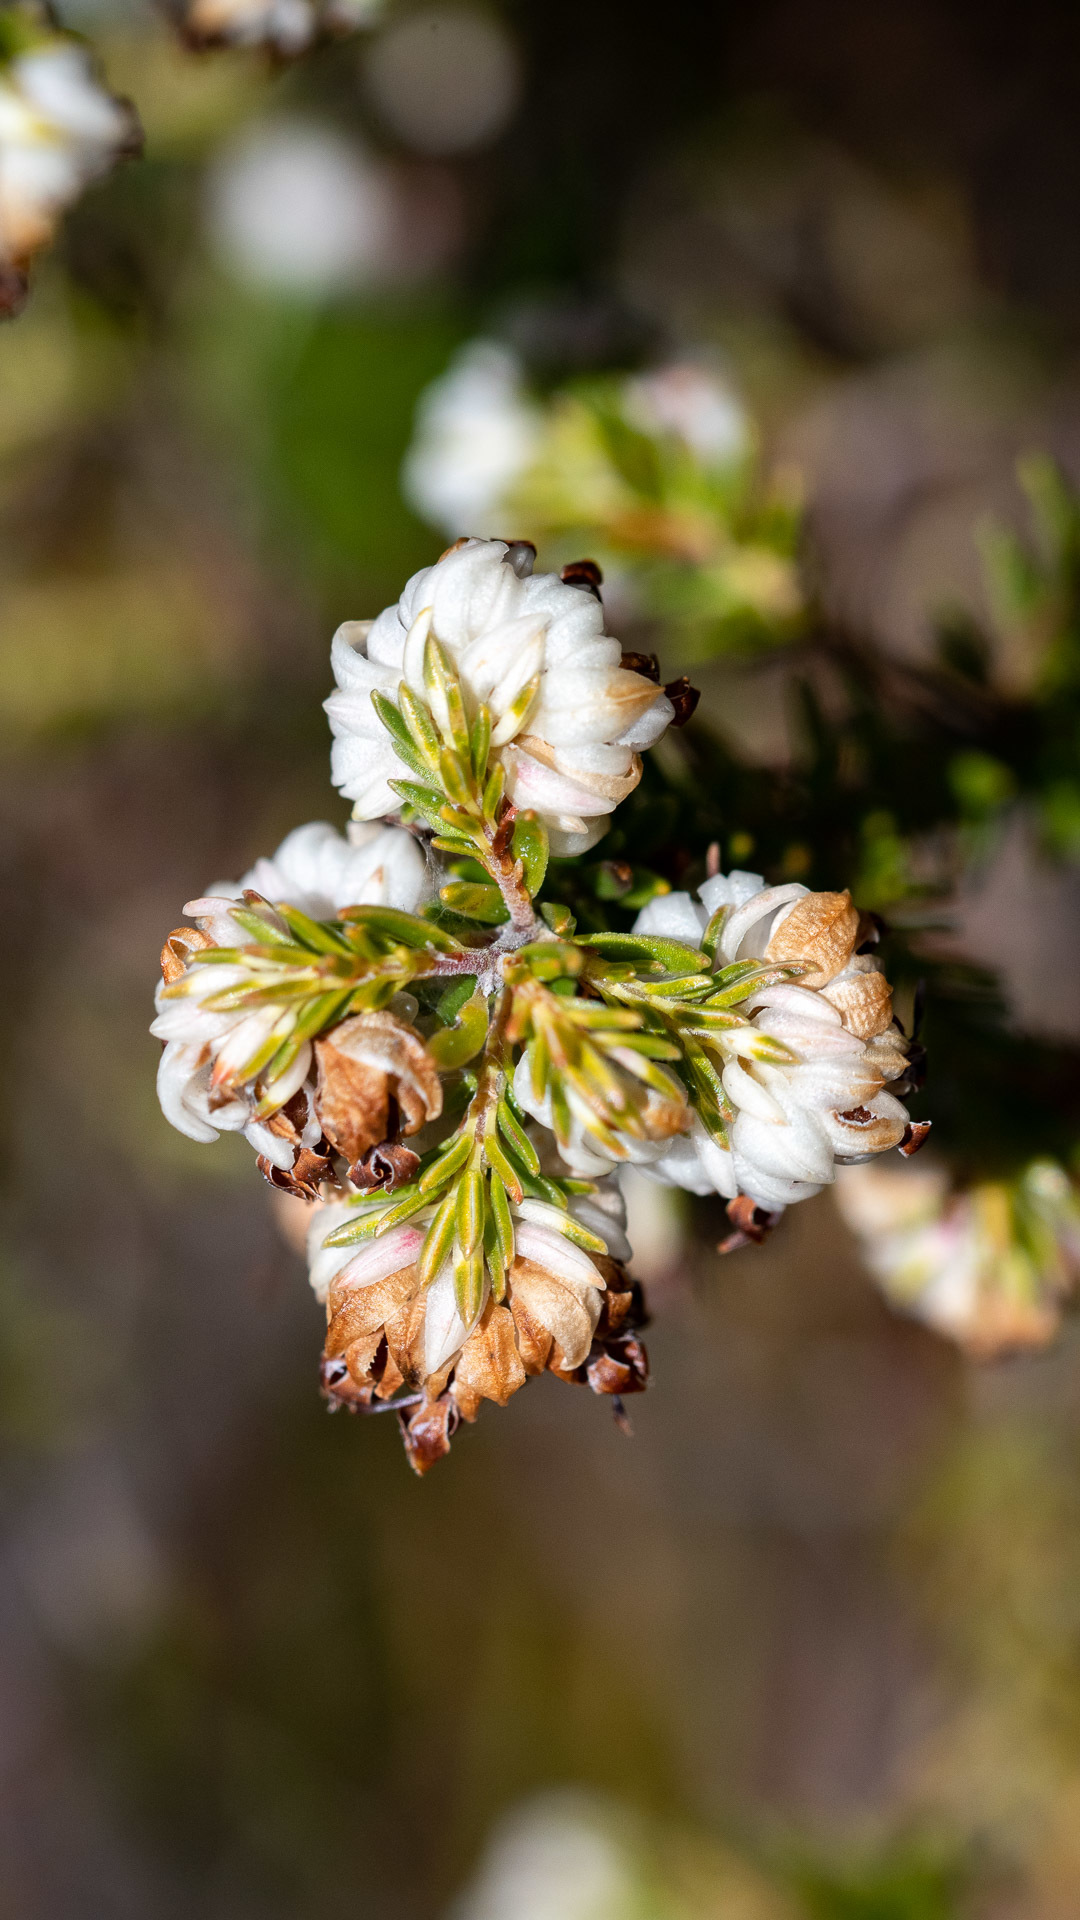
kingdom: Plantae
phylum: Tracheophyta
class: Magnoliopsida
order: Ericales
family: Ericaceae
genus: Erica
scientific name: Erica cumuliflora
